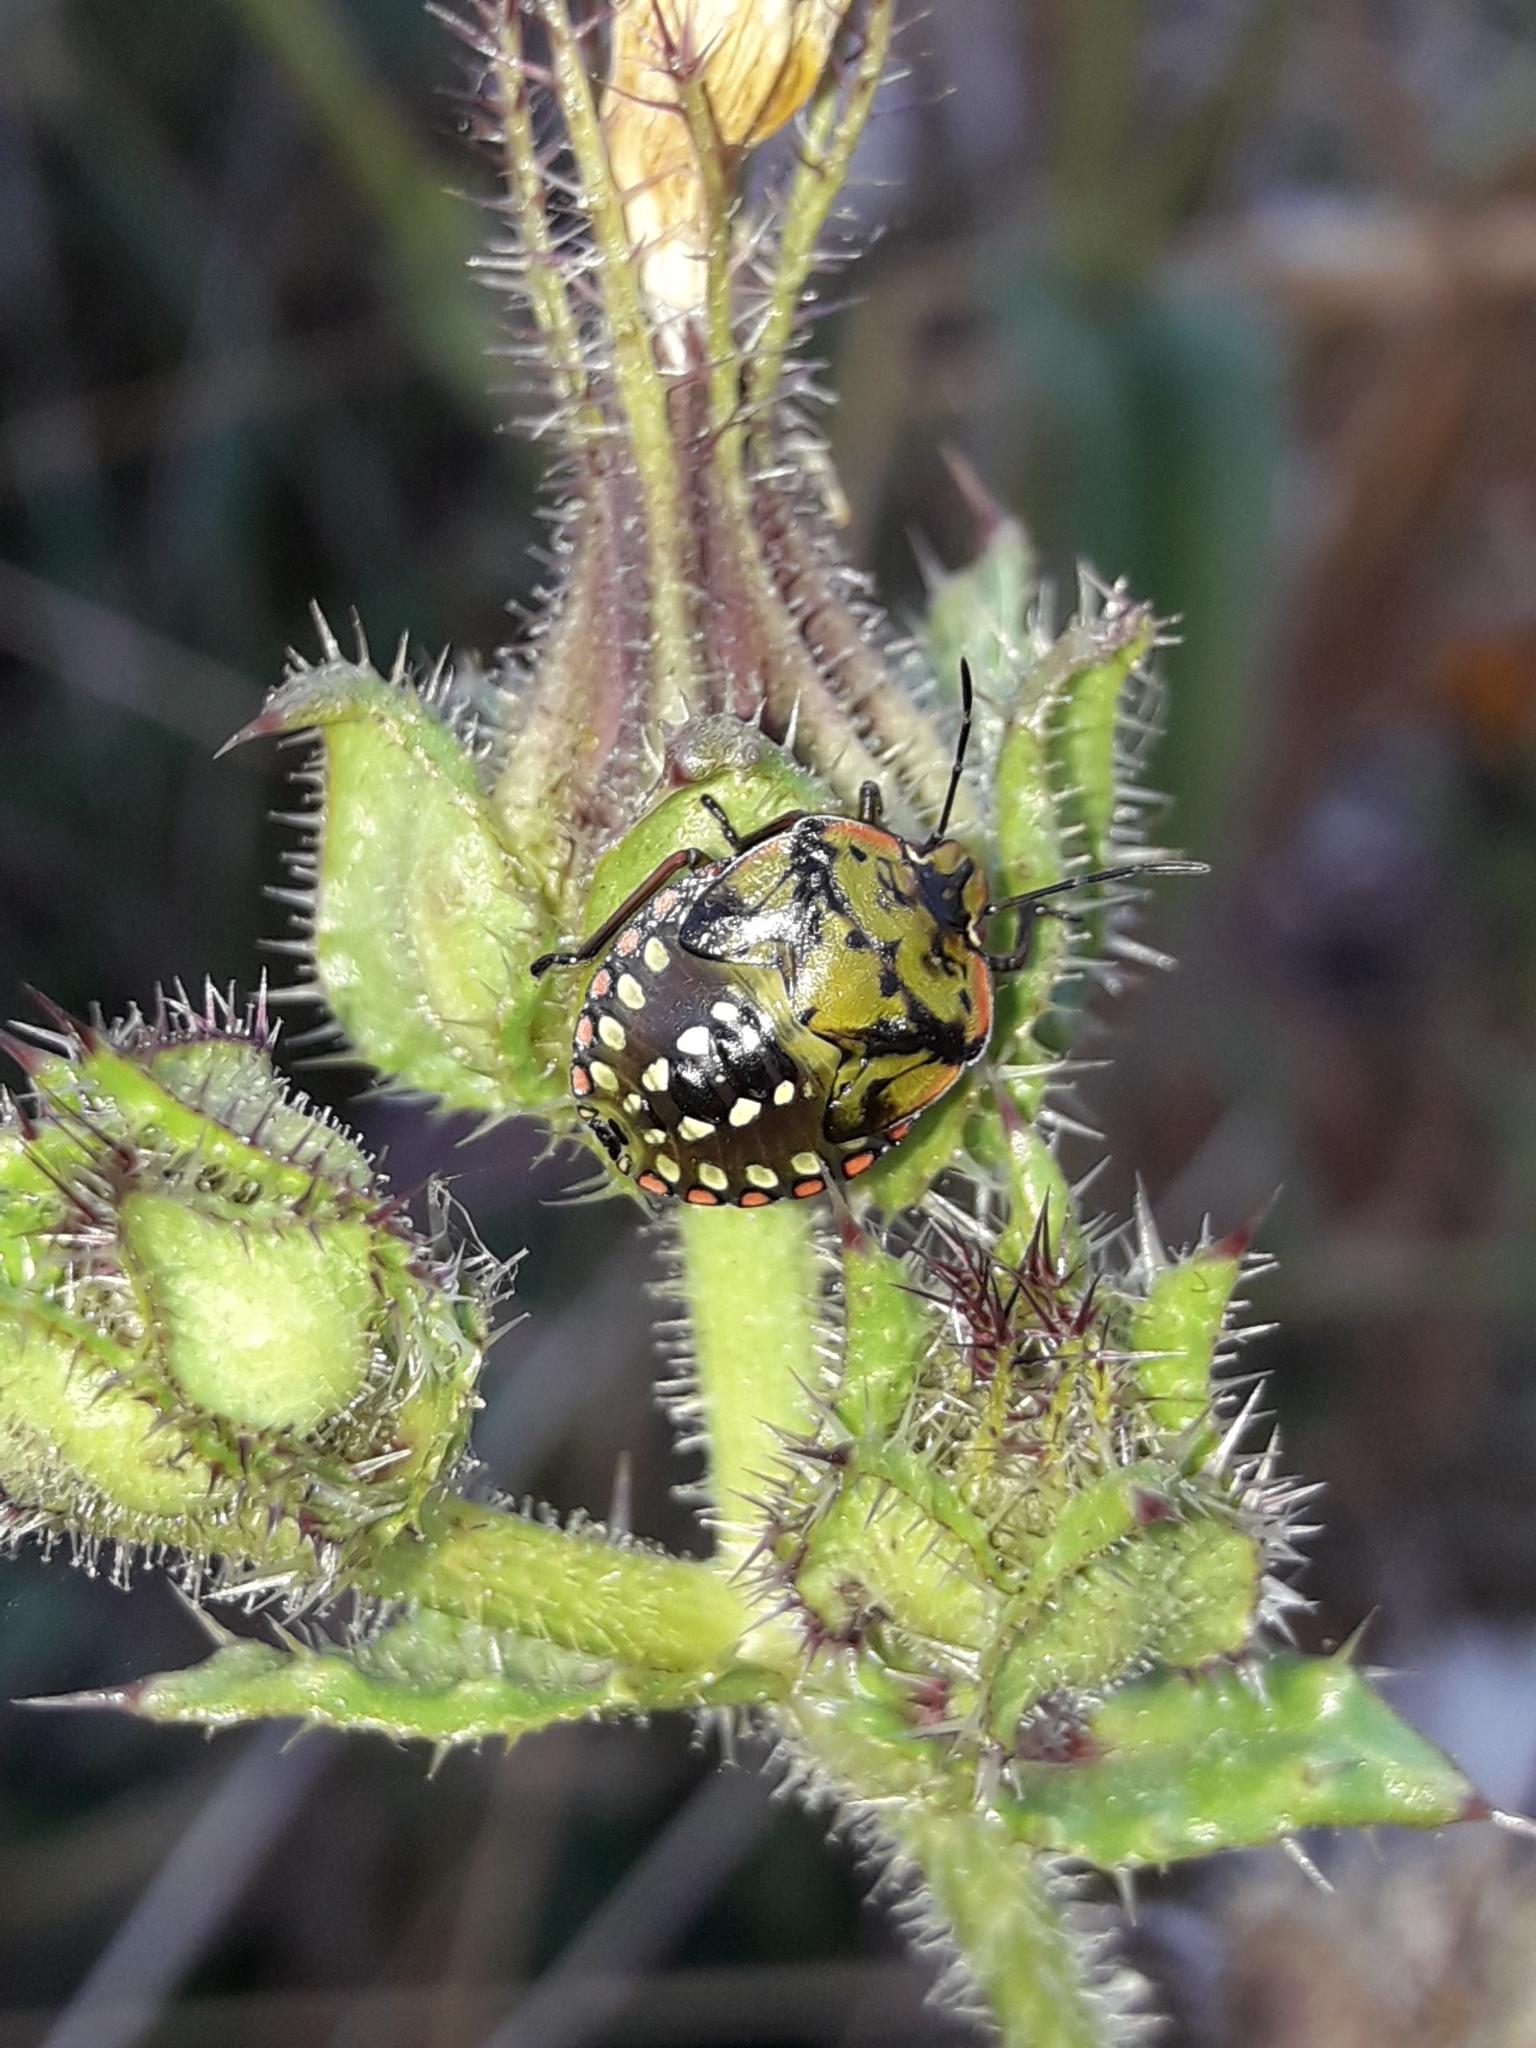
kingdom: Animalia
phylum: Arthropoda
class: Insecta
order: Hemiptera
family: Pentatomidae
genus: Nezara
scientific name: Nezara viridula
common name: Southern green stink bug
